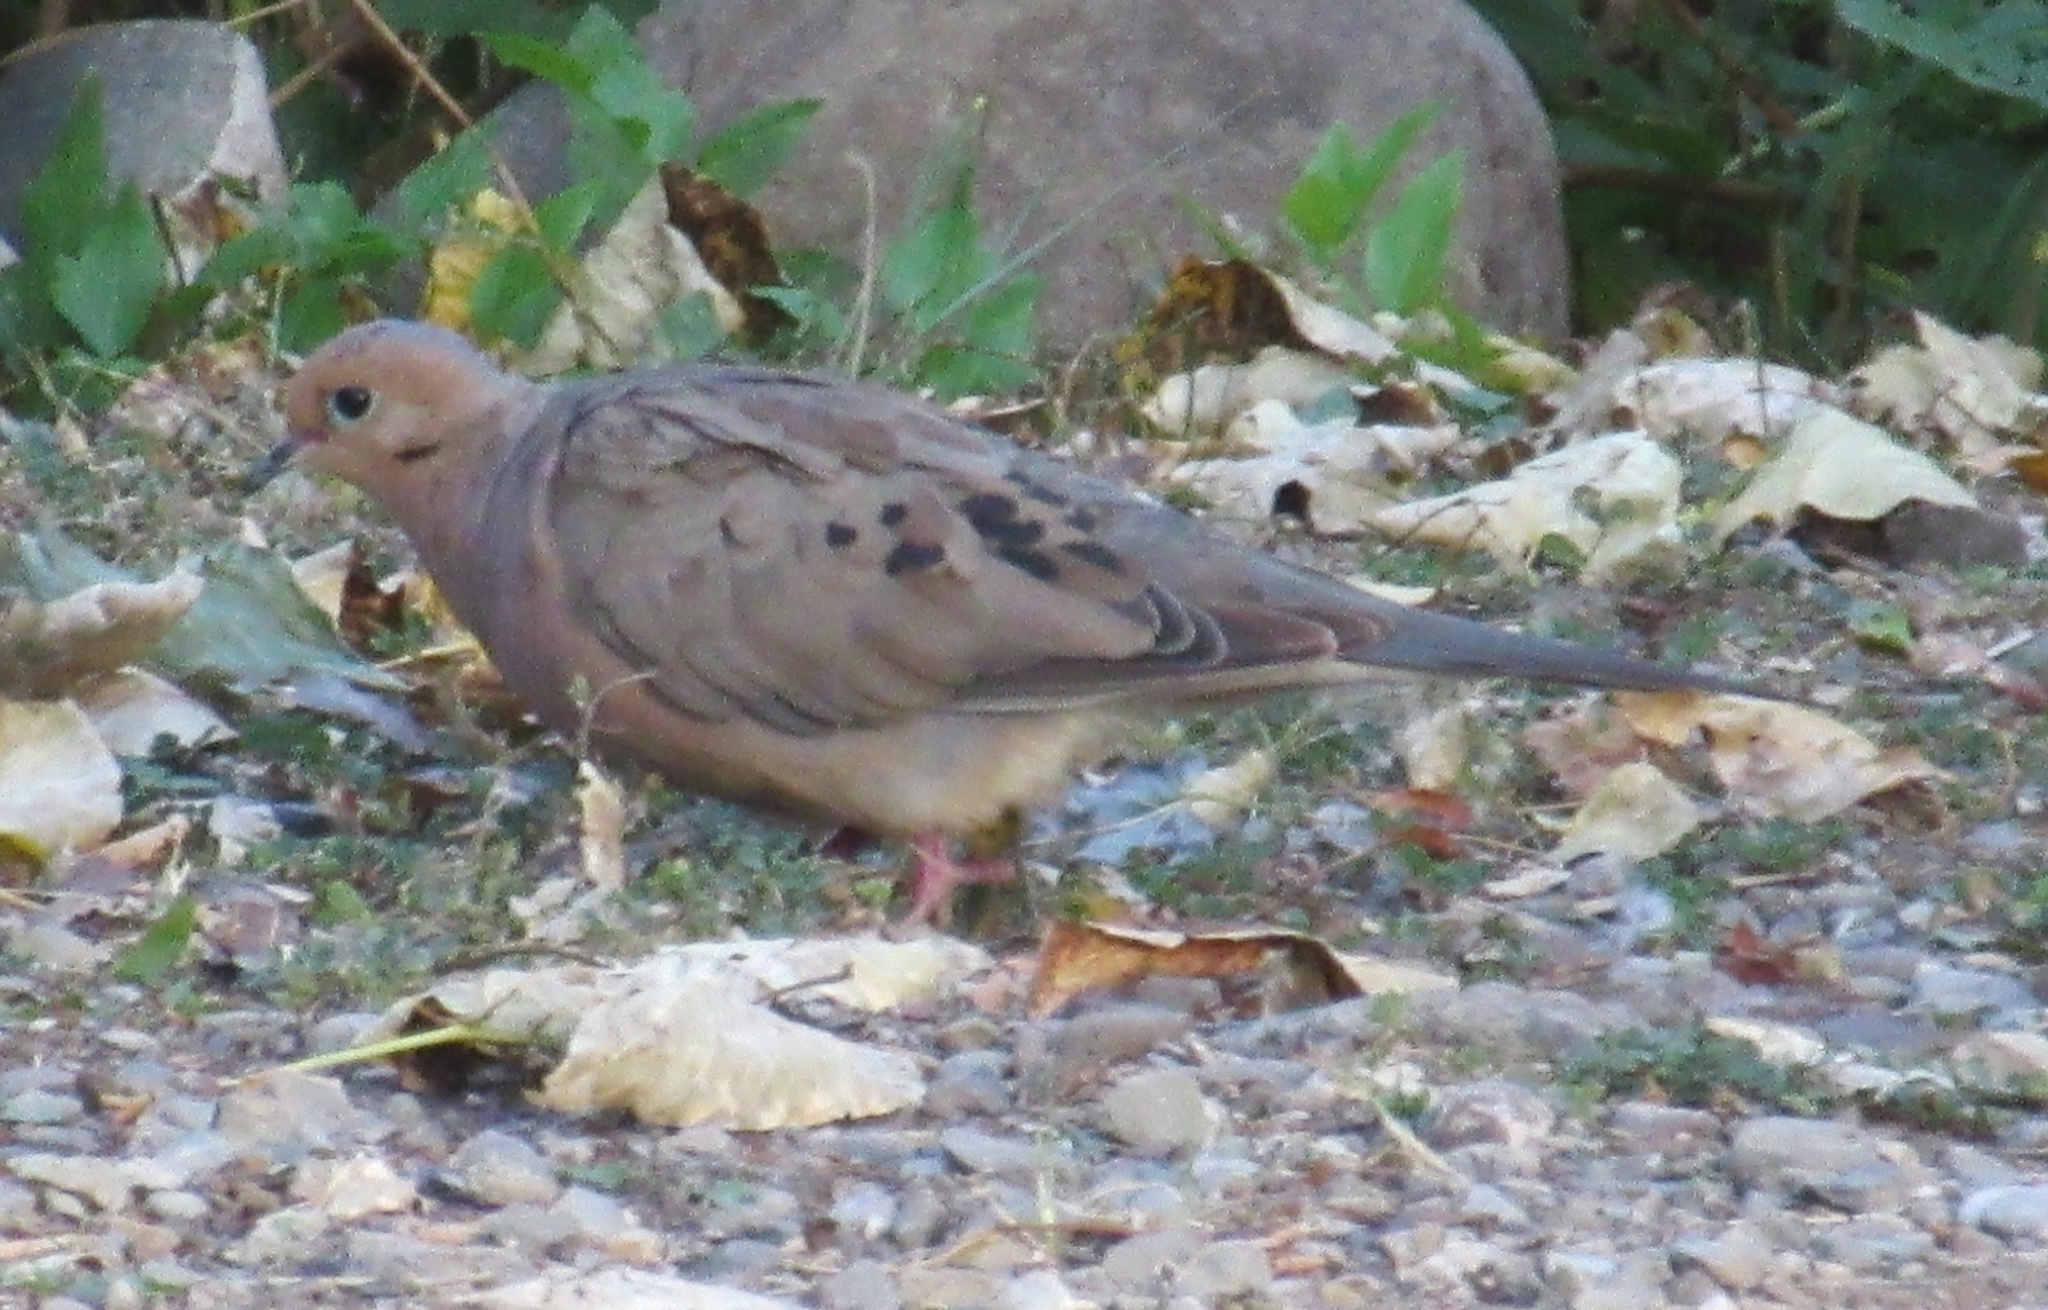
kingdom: Animalia
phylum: Chordata
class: Aves
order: Columbiformes
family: Columbidae
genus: Zenaida
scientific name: Zenaida macroura
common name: Mourning dove
